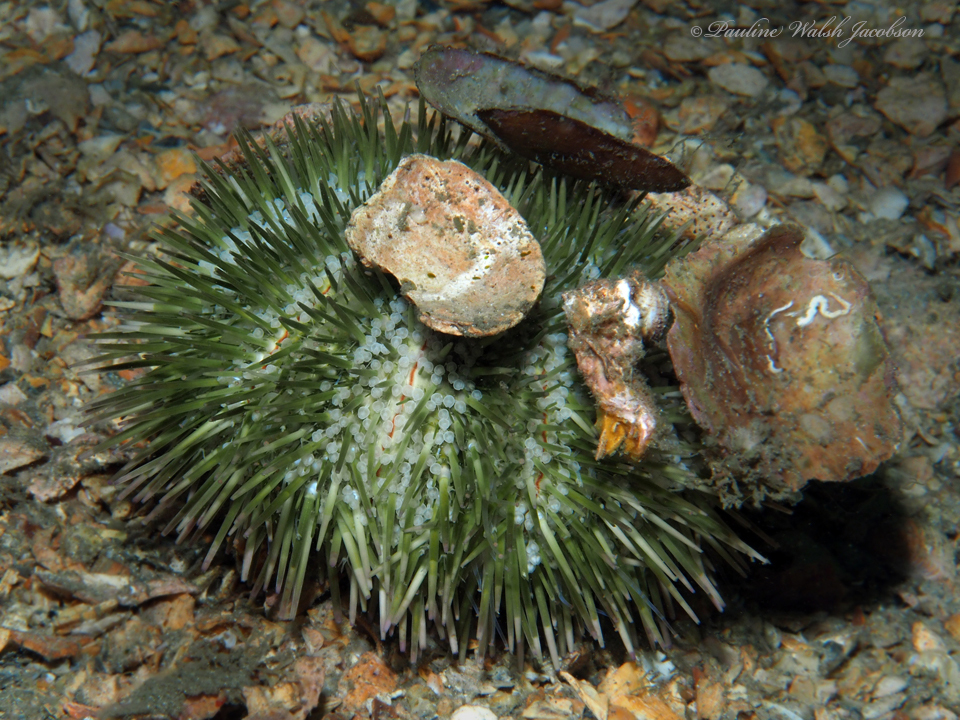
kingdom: Animalia
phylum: Echinodermata
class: Echinoidea
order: Camarodonta
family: Toxopneustidae
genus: Lytechinus
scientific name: Lytechinus variegatus
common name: Variegated urchin
